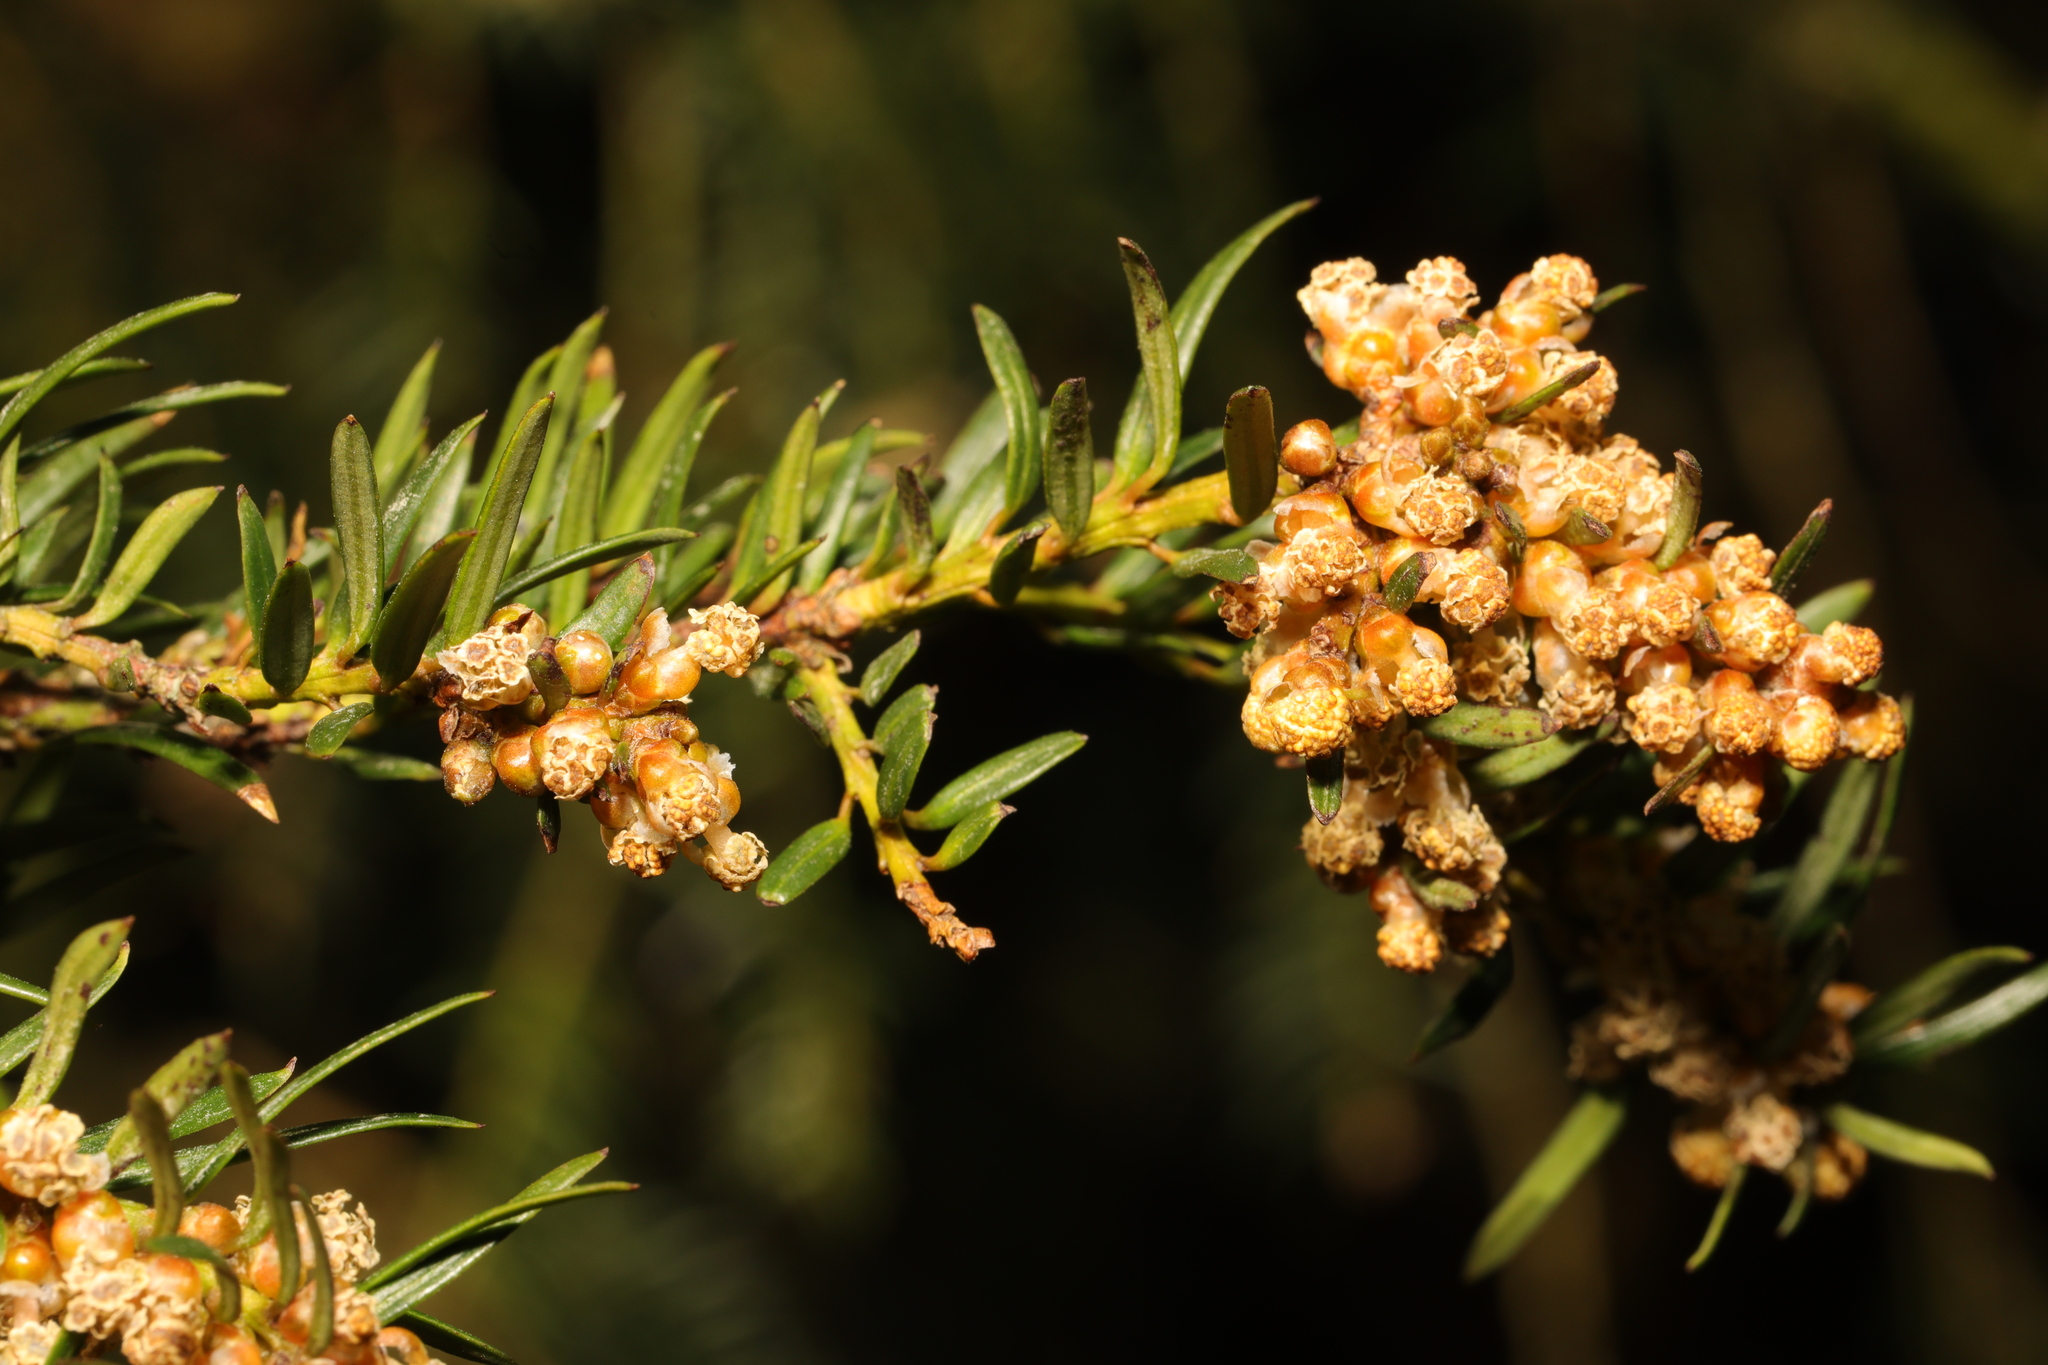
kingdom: Plantae
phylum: Tracheophyta
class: Pinopsida
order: Pinales
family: Taxaceae
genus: Taxus
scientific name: Taxus baccata
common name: Yew
